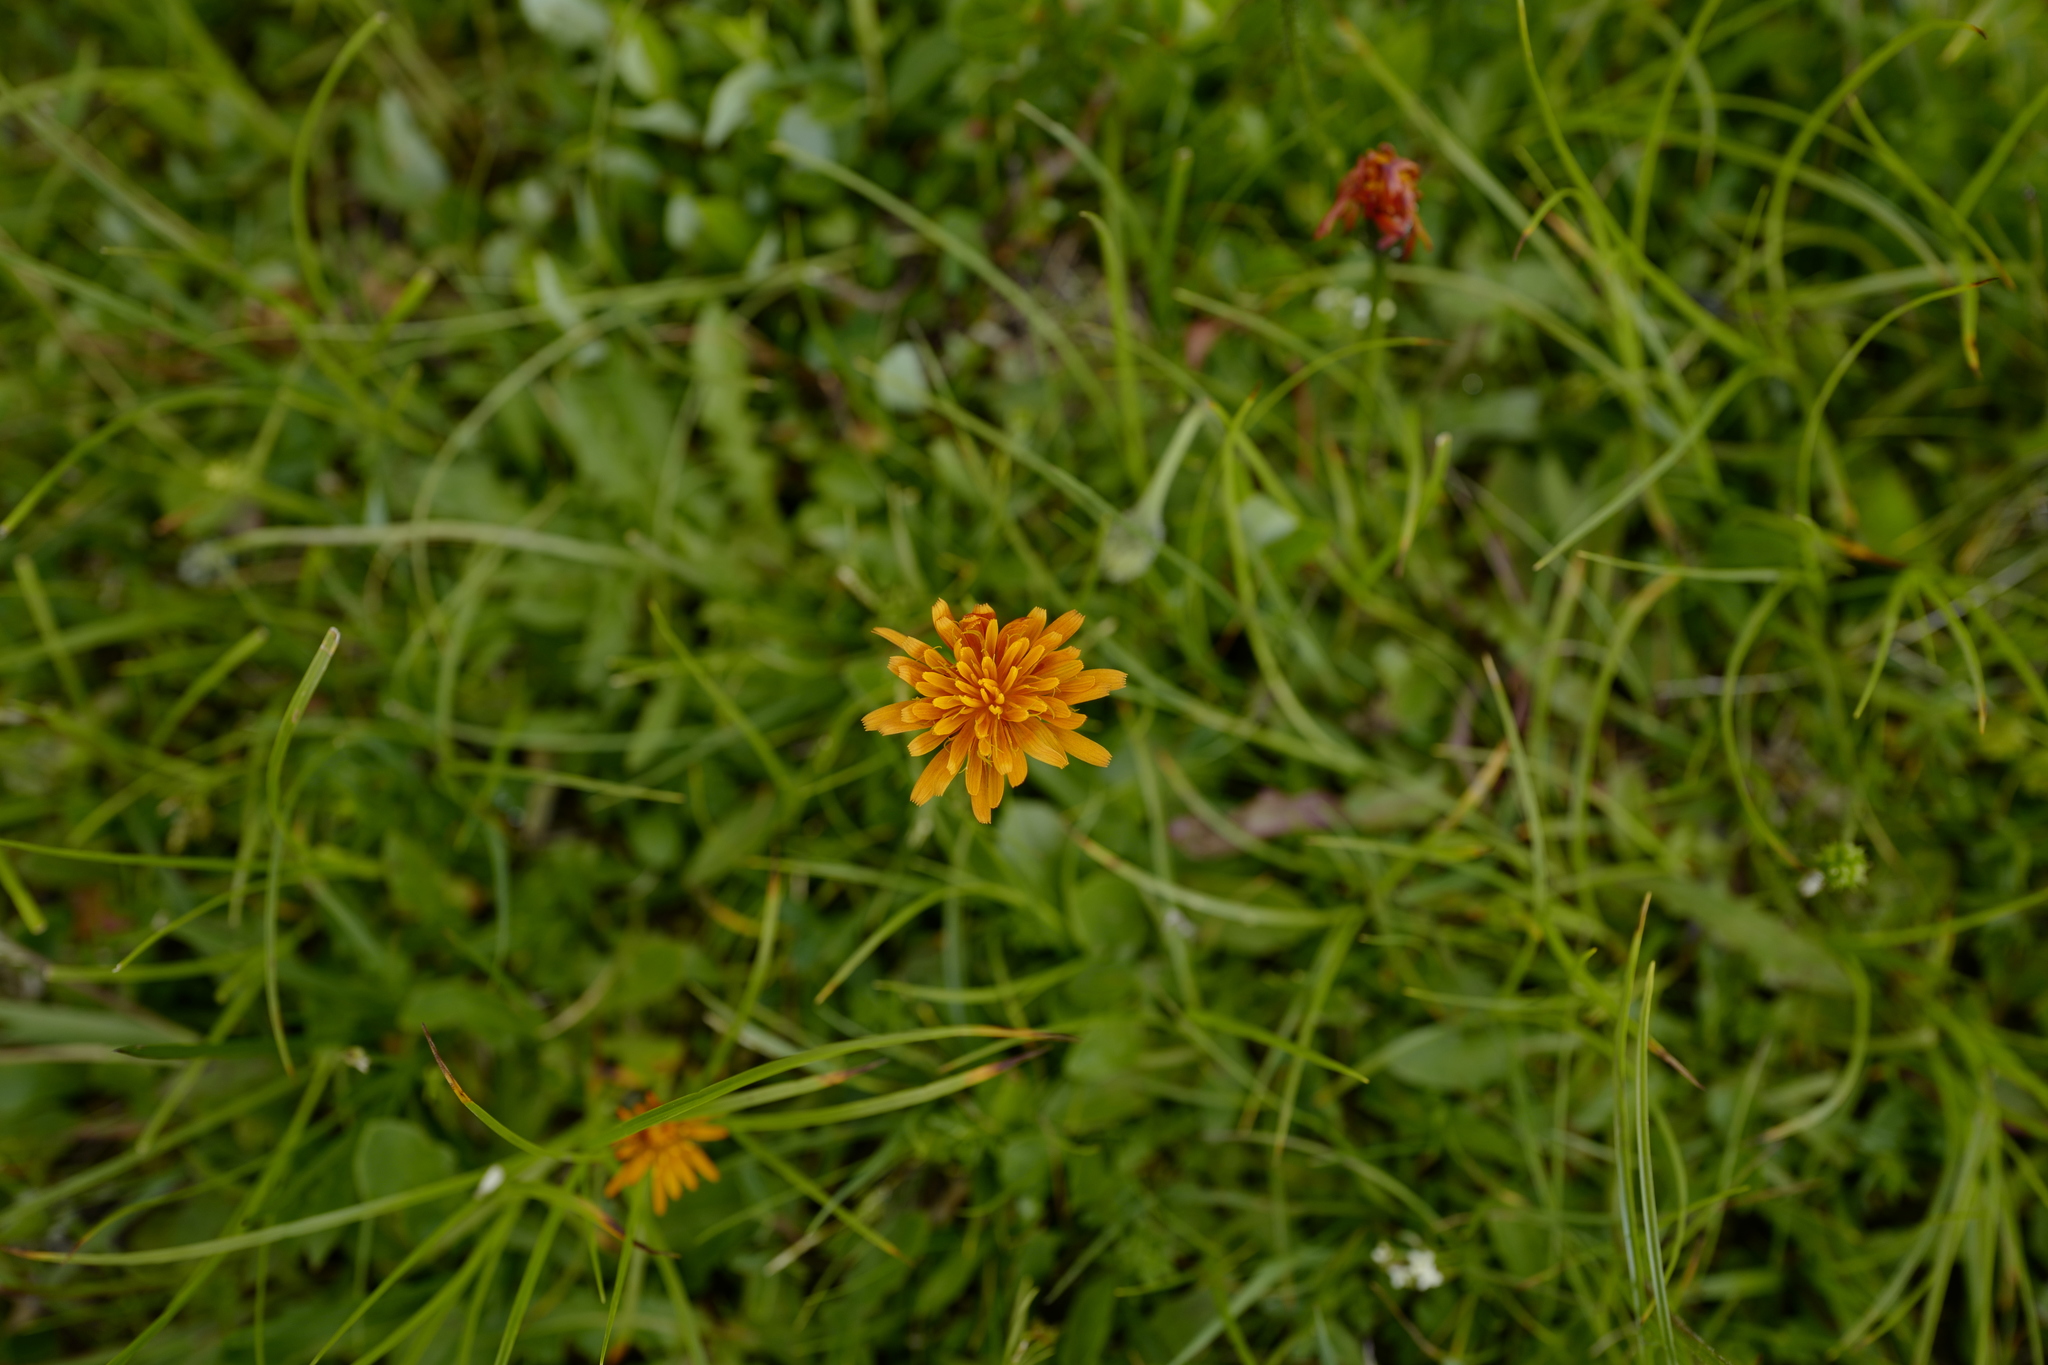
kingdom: Plantae
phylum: Tracheophyta
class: Magnoliopsida
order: Asterales
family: Asteraceae
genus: Crepis
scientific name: Crepis aurea
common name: Golden hawk's-beard
